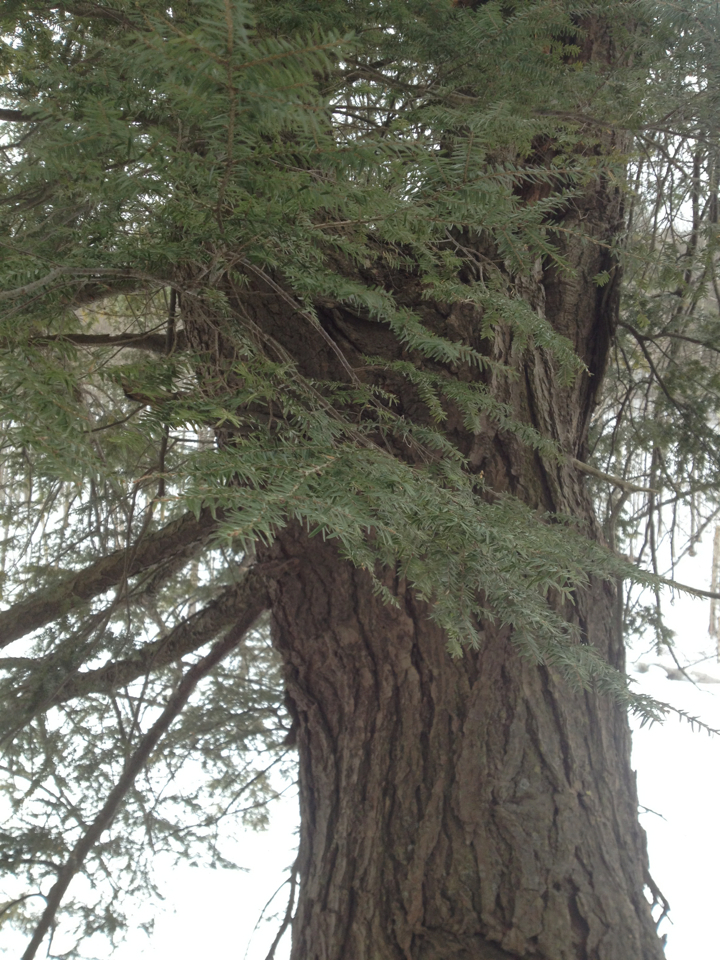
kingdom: Plantae
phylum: Tracheophyta
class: Pinopsida
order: Pinales
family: Pinaceae
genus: Tsuga
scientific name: Tsuga canadensis
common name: Eastern hemlock
